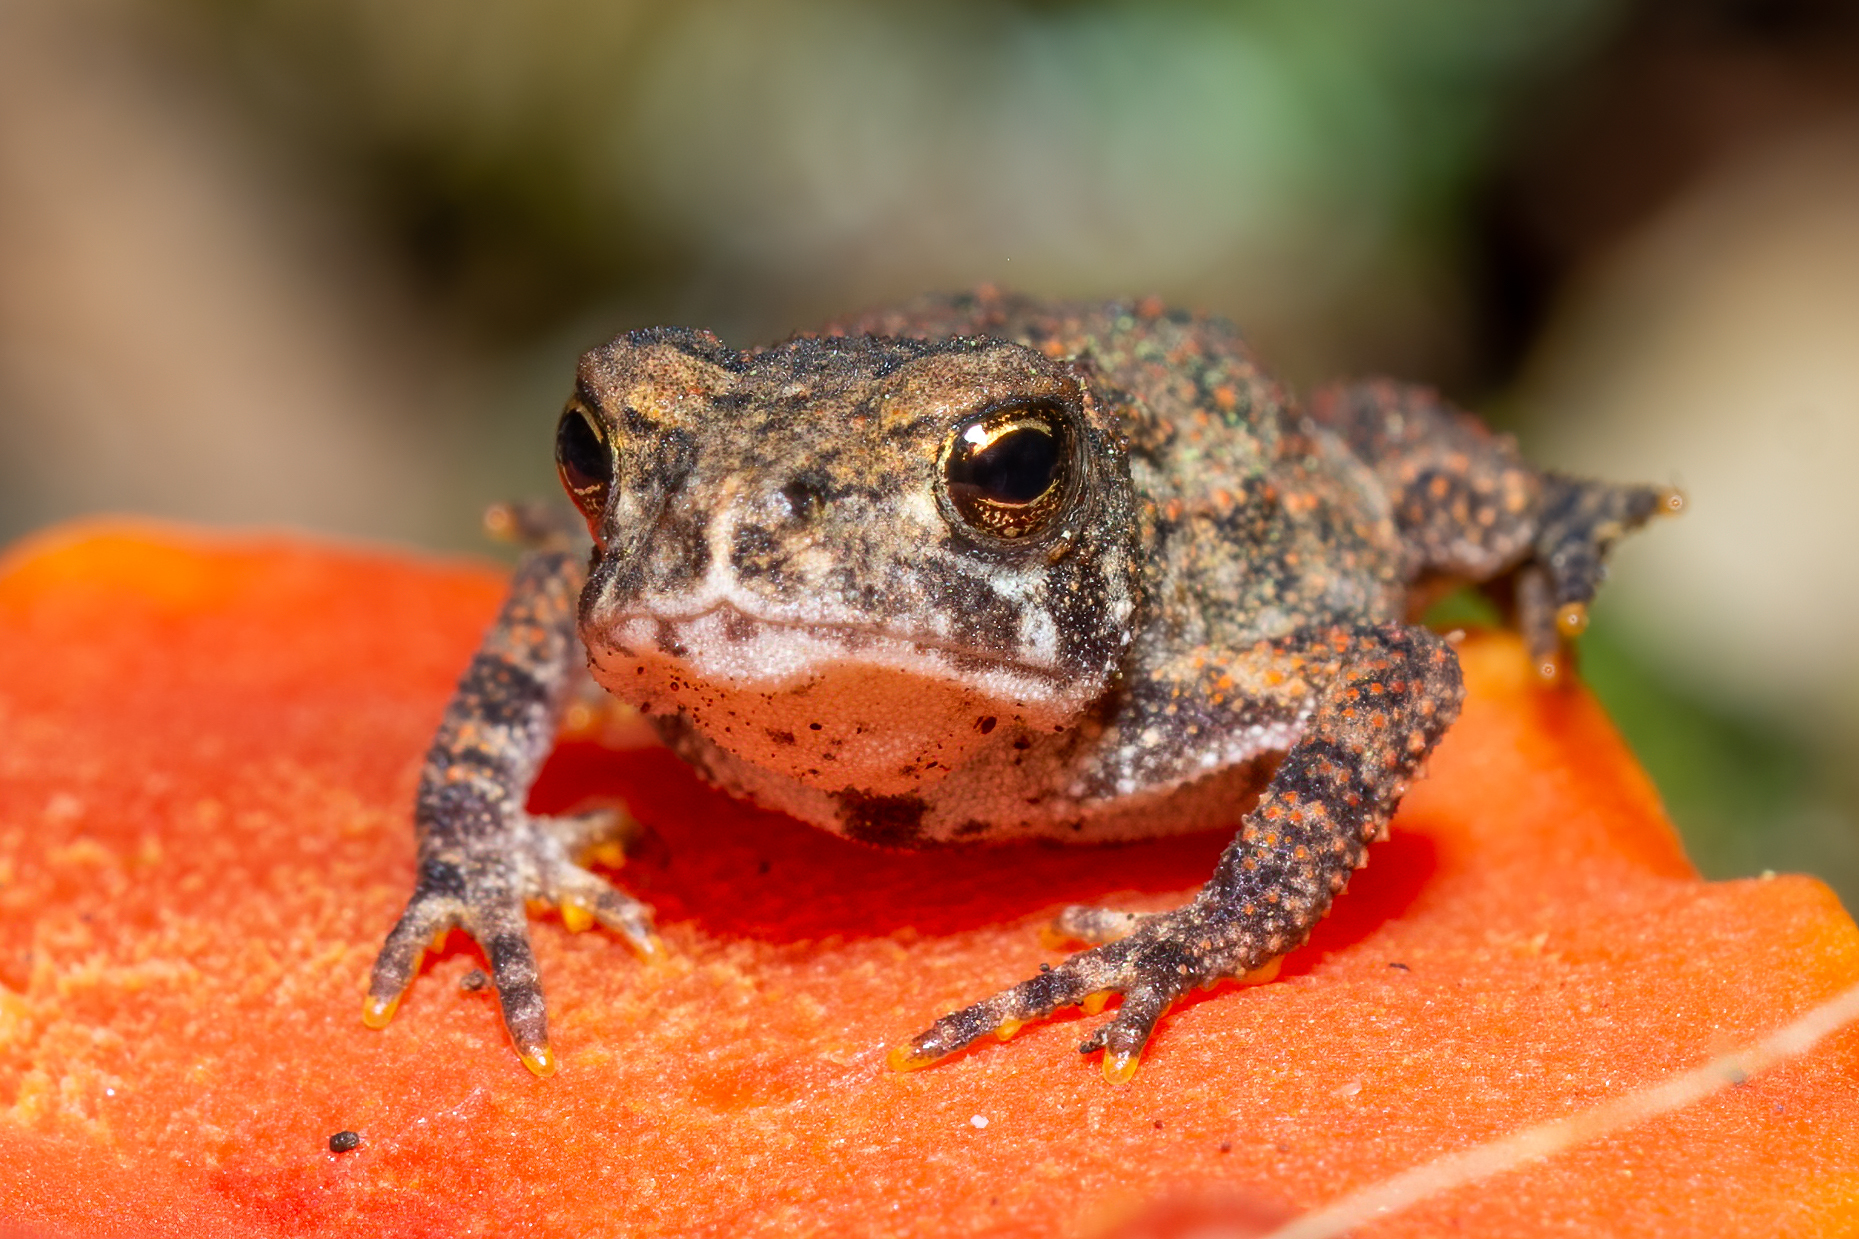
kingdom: Animalia
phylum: Chordata
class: Amphibia
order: Anura
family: Bufonidae
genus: Anaxyrus
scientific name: Anaxyrus americanus
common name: American toad
